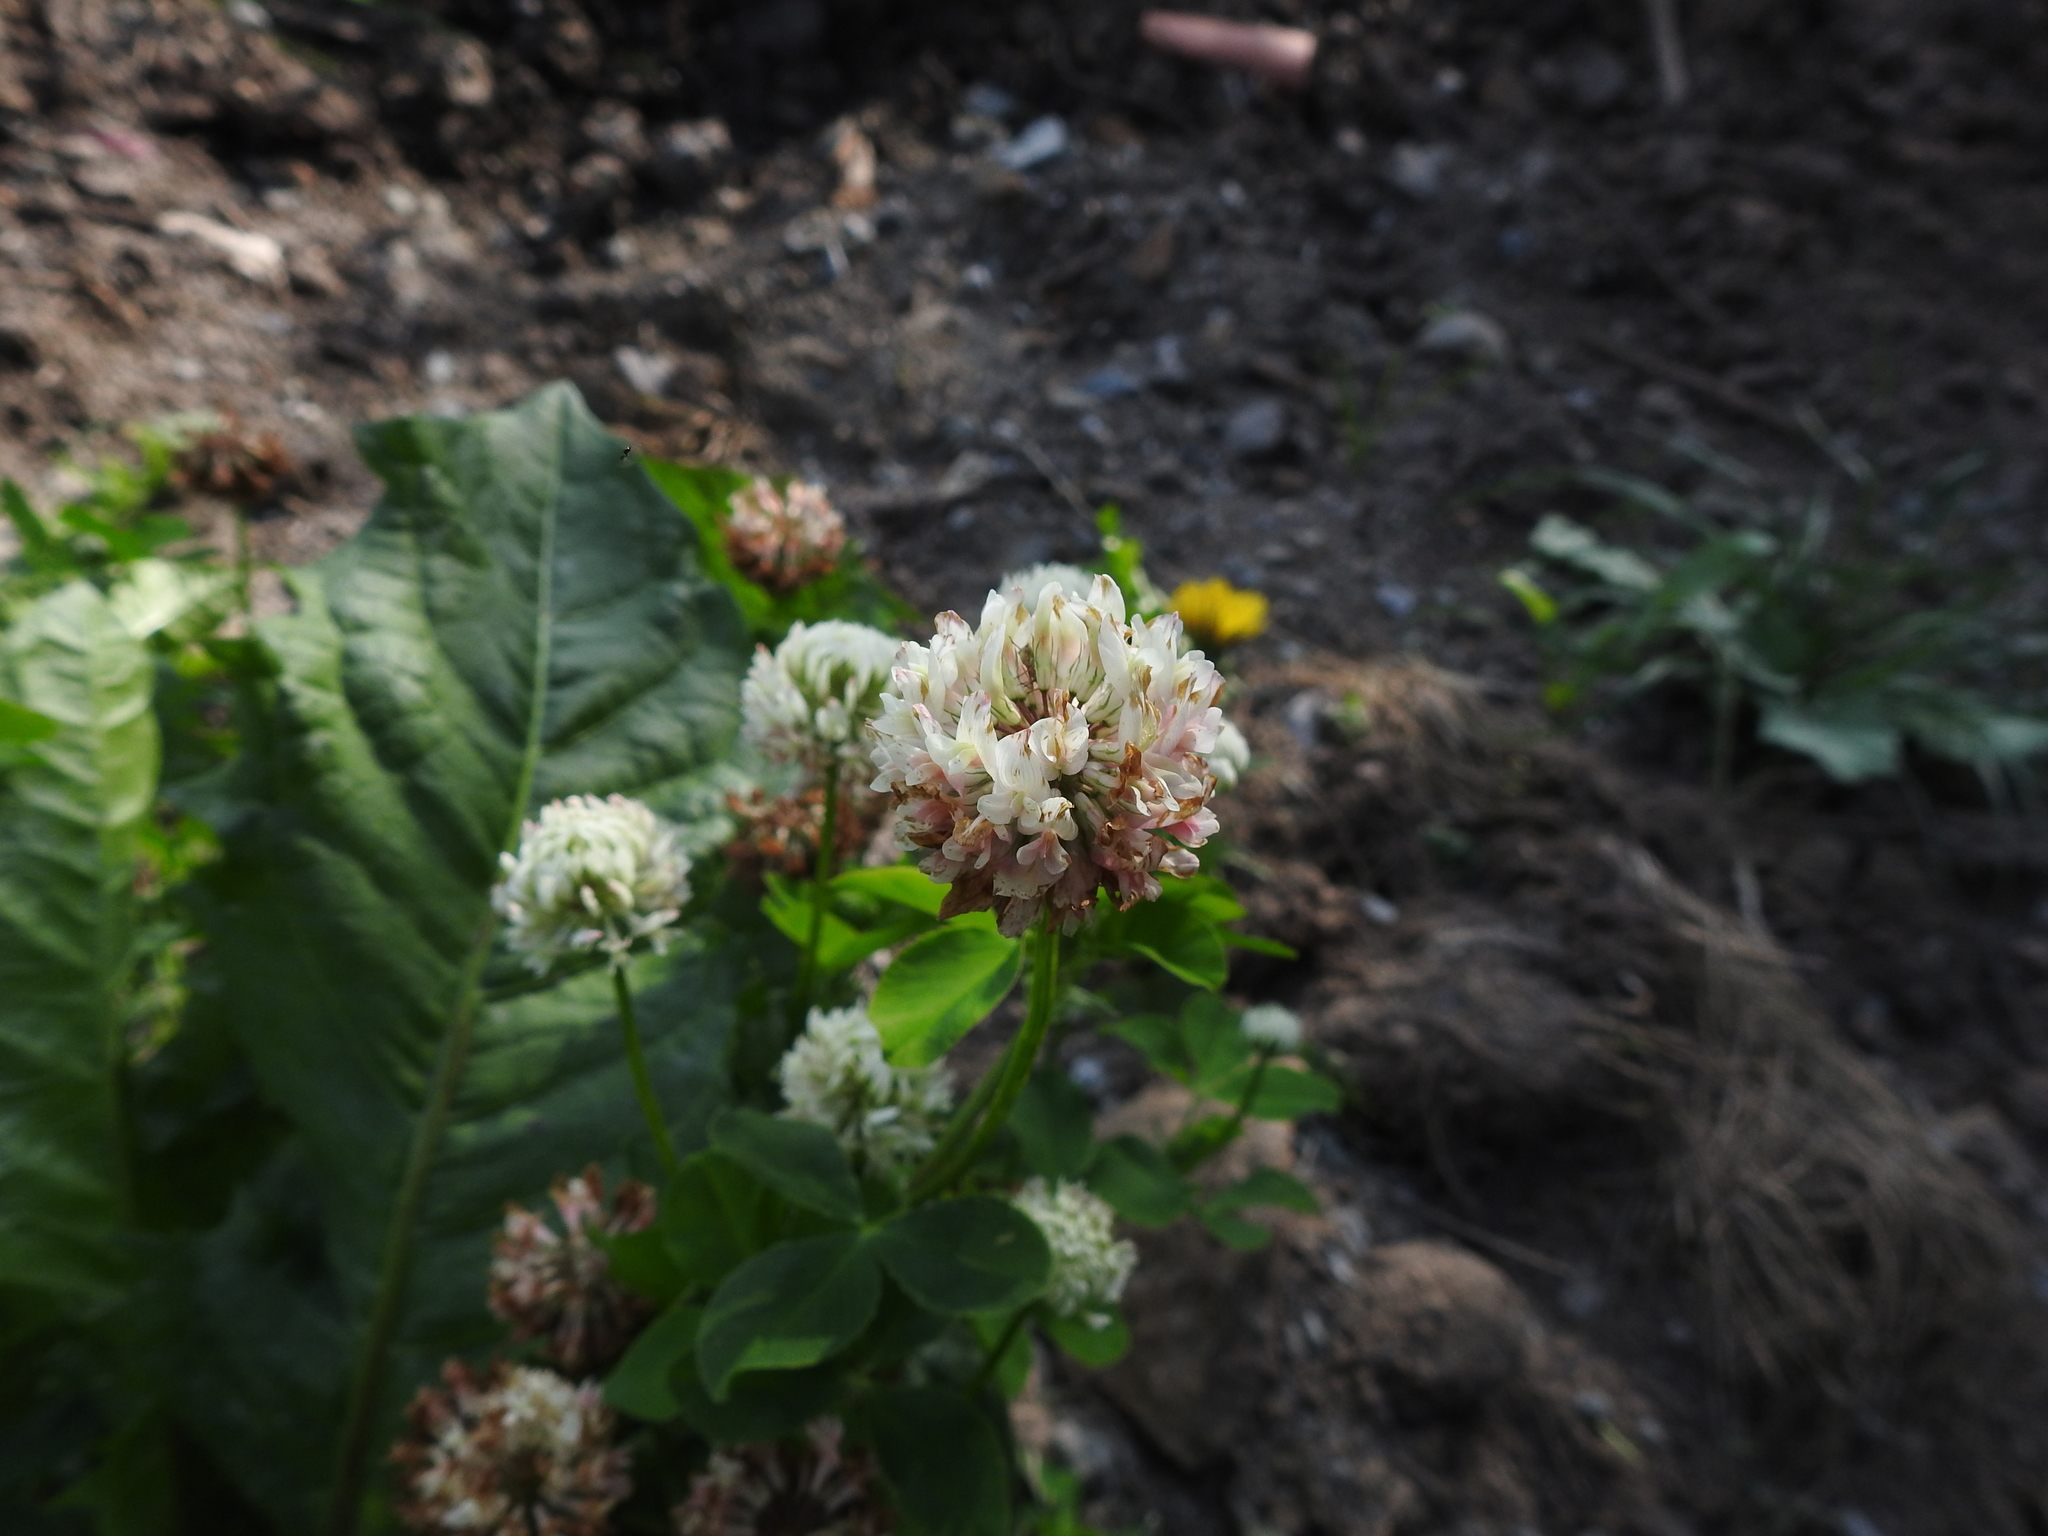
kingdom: Plantae
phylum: Tracheophyta
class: Magnoliopsida
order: Fabales
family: Fabaceae
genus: Trifolium
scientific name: Trifolium hybridum
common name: Alsike clover
